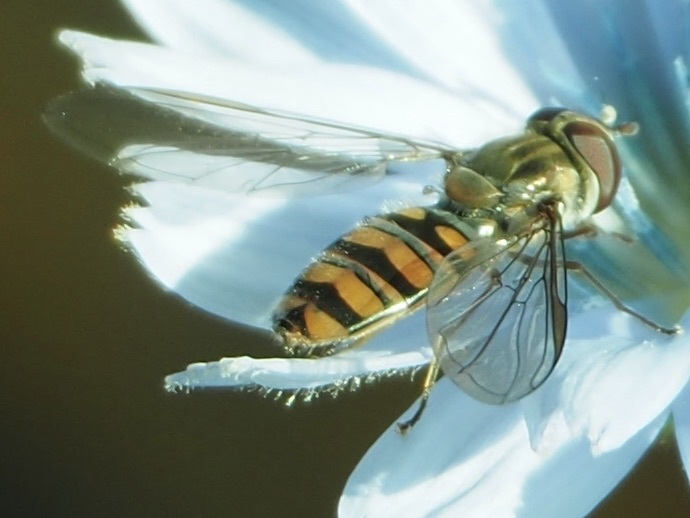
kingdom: Animalia
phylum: Arthropoda
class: Insecta
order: Diptera
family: Syrphidae
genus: Episyrphus
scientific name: Episyrphus balteatus
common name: Marmalade hoverfly
